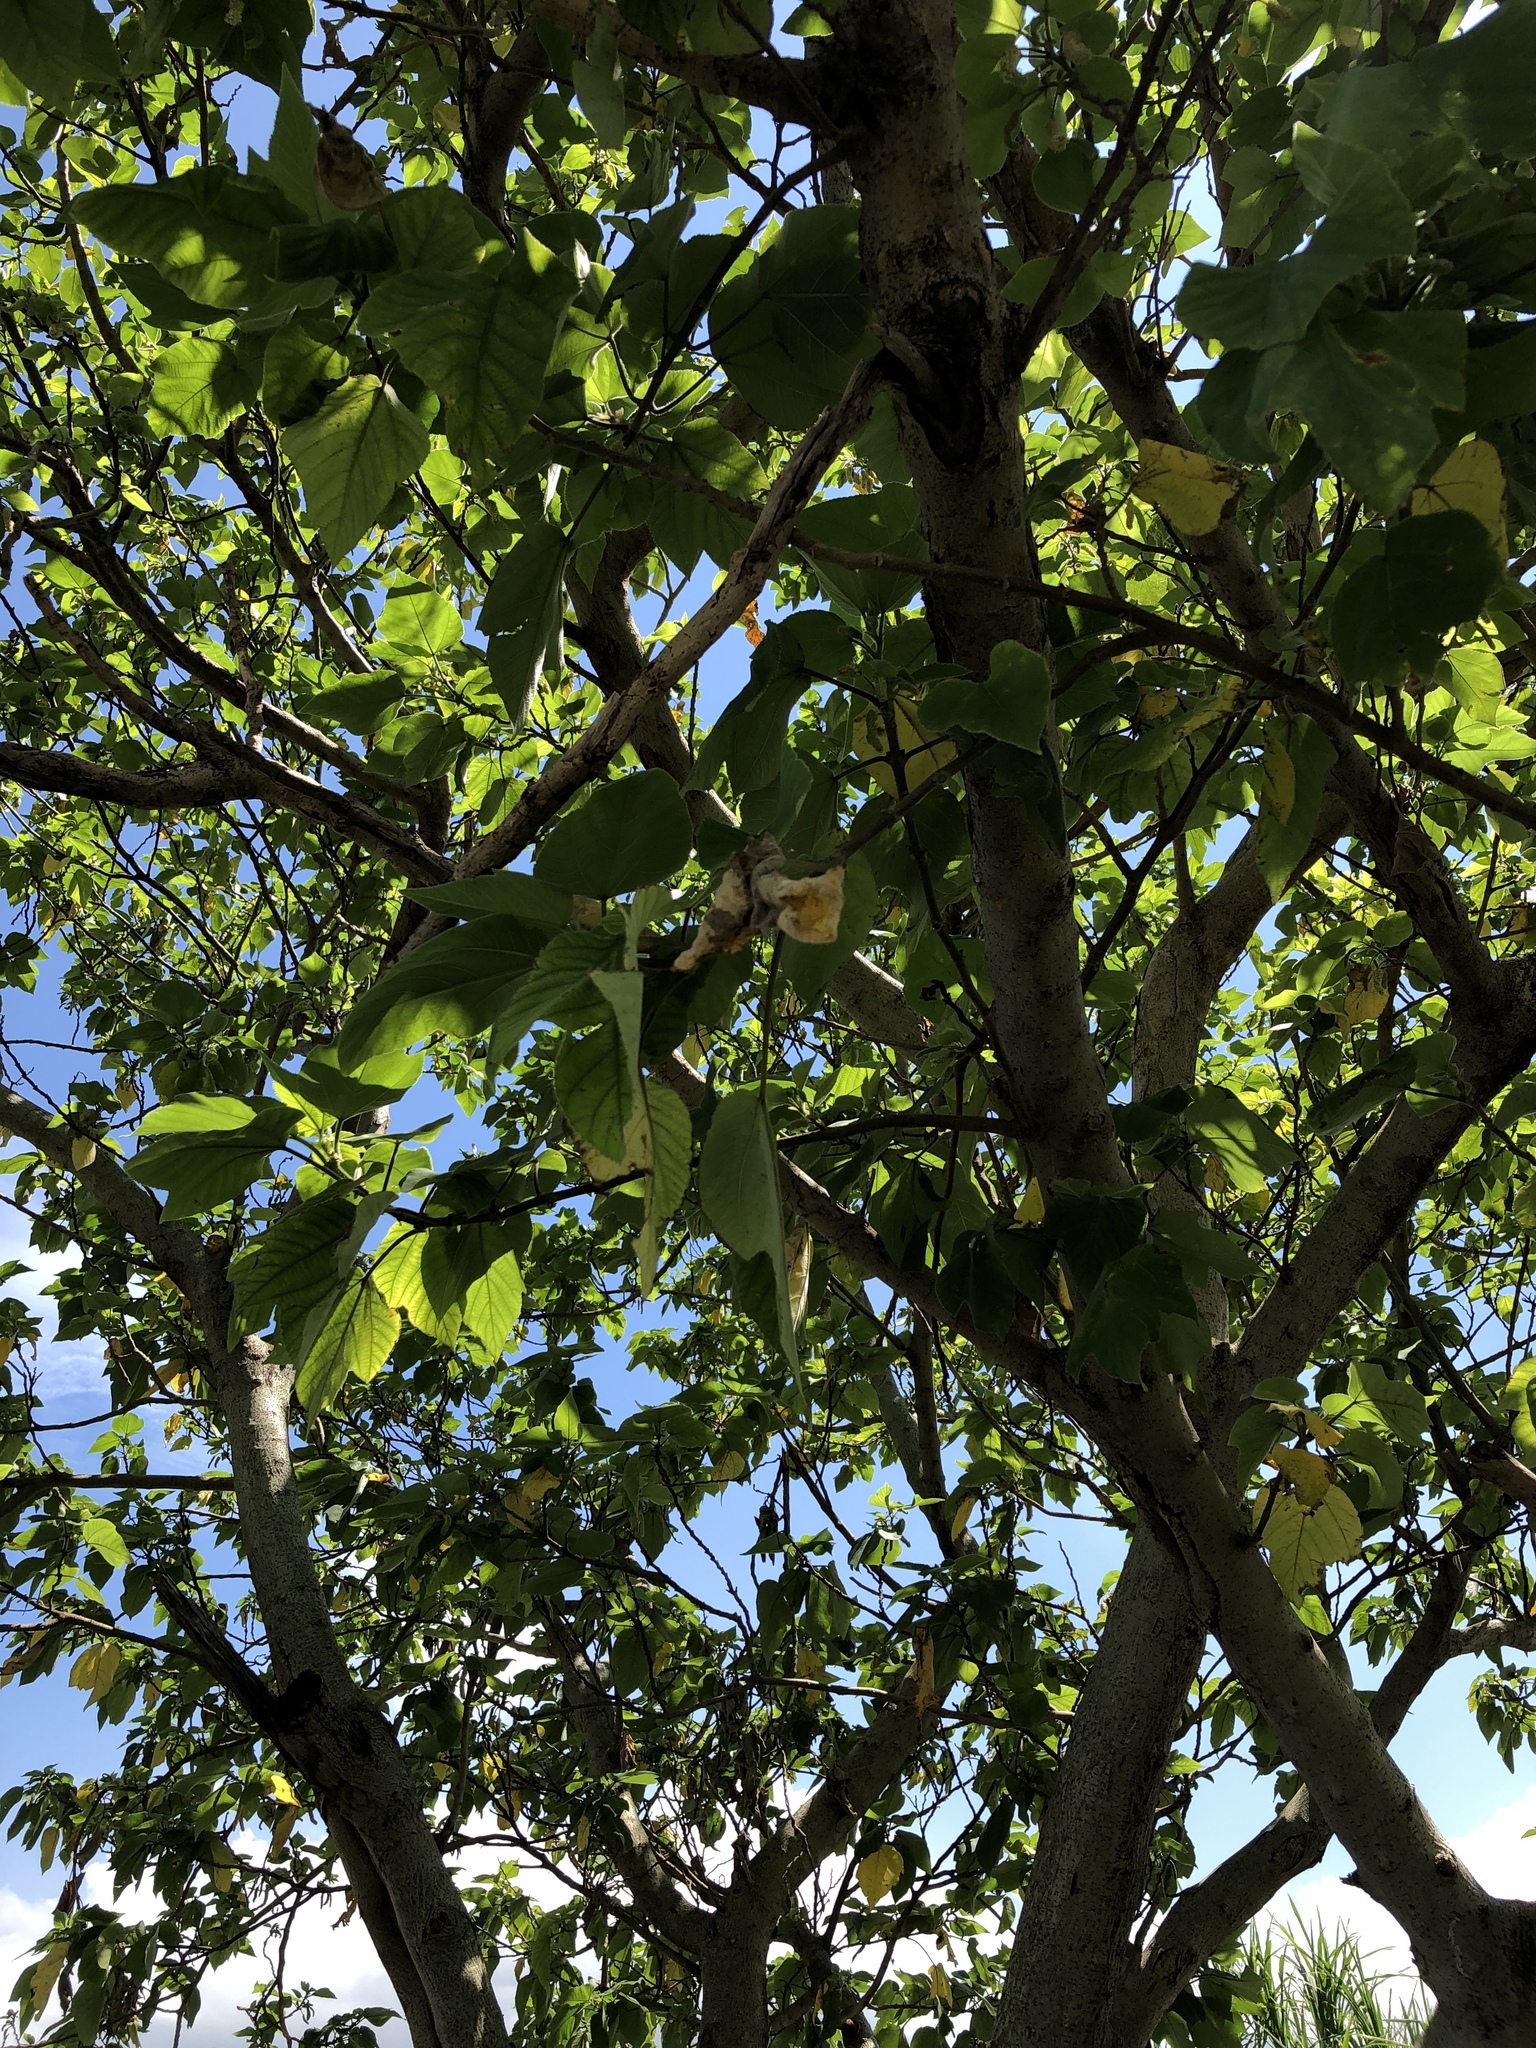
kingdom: Plantae
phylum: Tracheophyta
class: Magnoliopsida
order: Rosales
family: Moraceae
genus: Broussonetia
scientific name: Broussonetia papyrifera
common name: Paper mulberry
